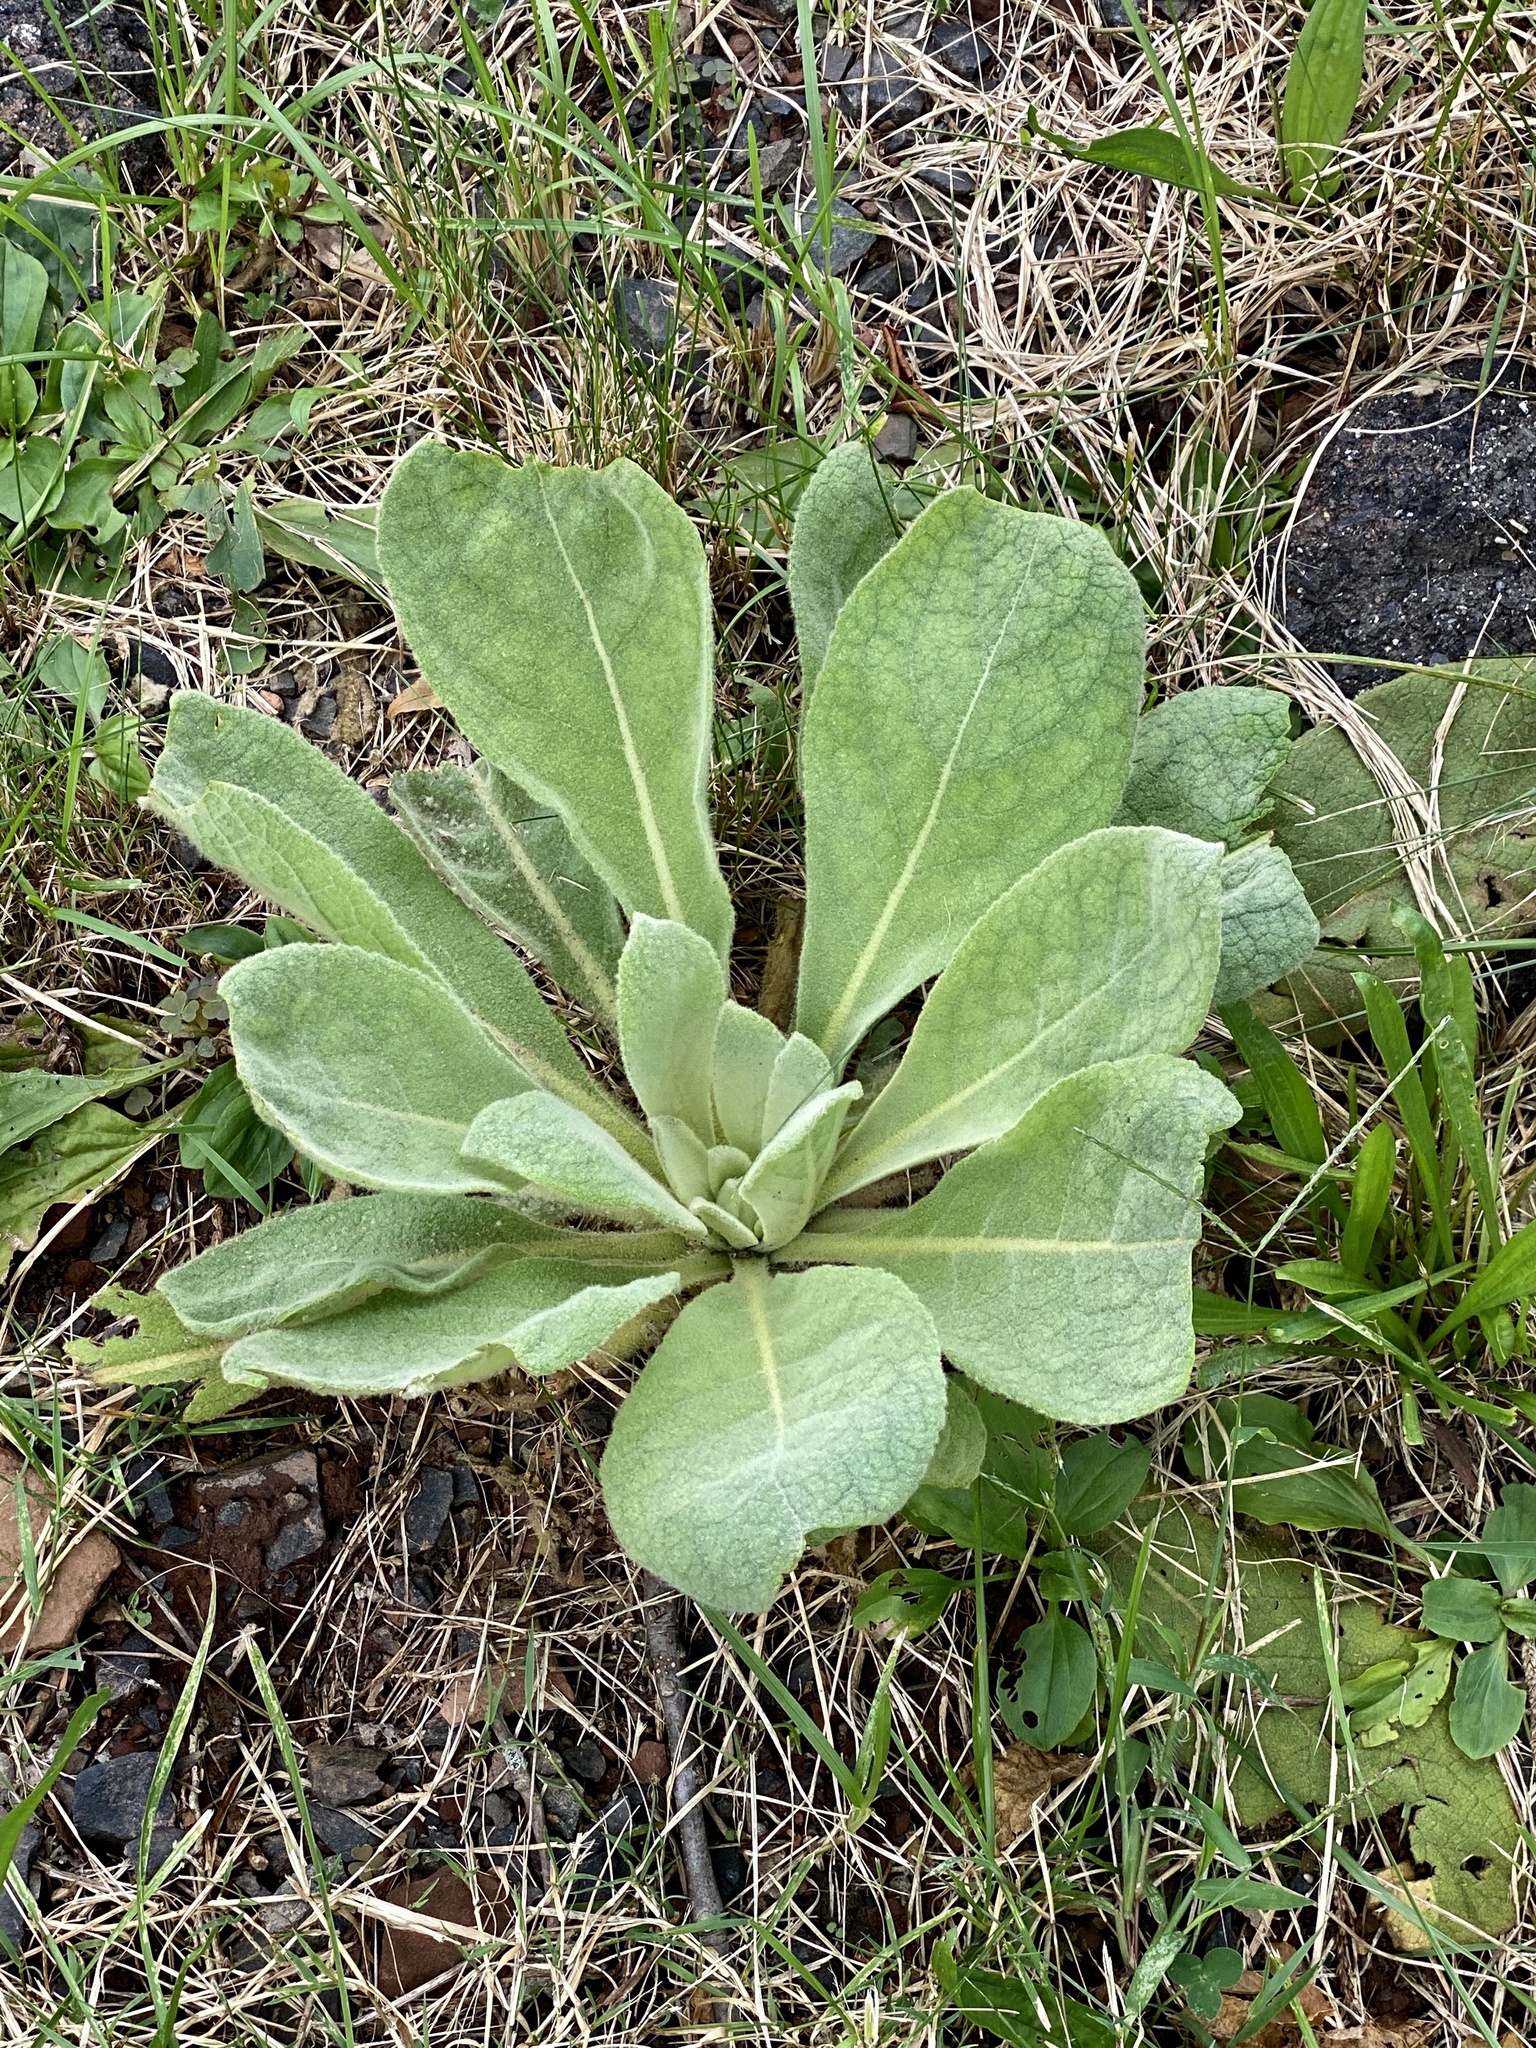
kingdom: Plantae
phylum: Tracheophyta
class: Magnoliopsida
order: Lamiales
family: Scrophulariaceae
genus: Verbascum
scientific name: Verbascum thapsus
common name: Common mullein
